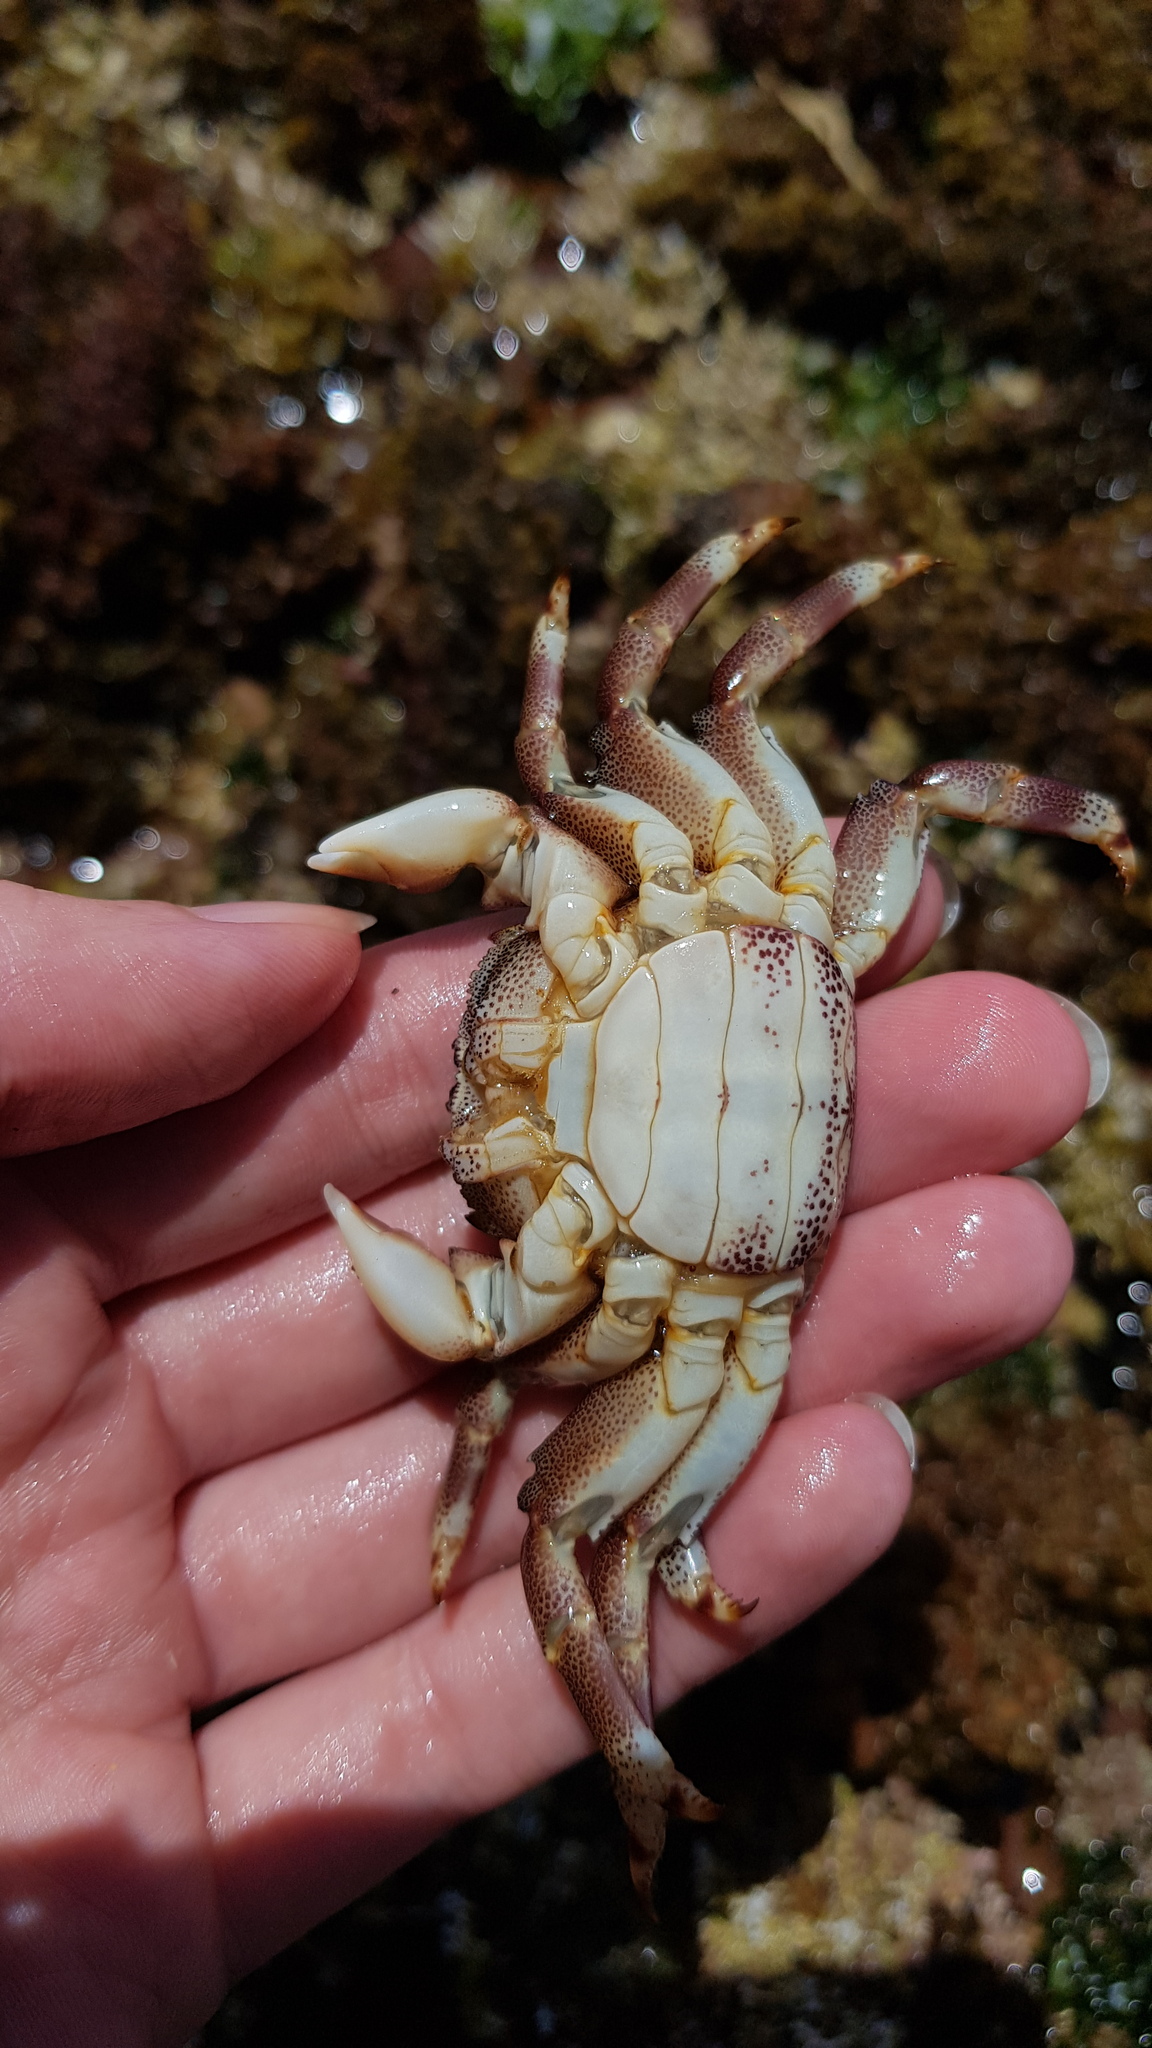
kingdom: Animalia
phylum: Arthropoda
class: Malacostraca
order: Decapoda
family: Plagusiidae
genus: Davusia
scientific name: Davusia glabra
